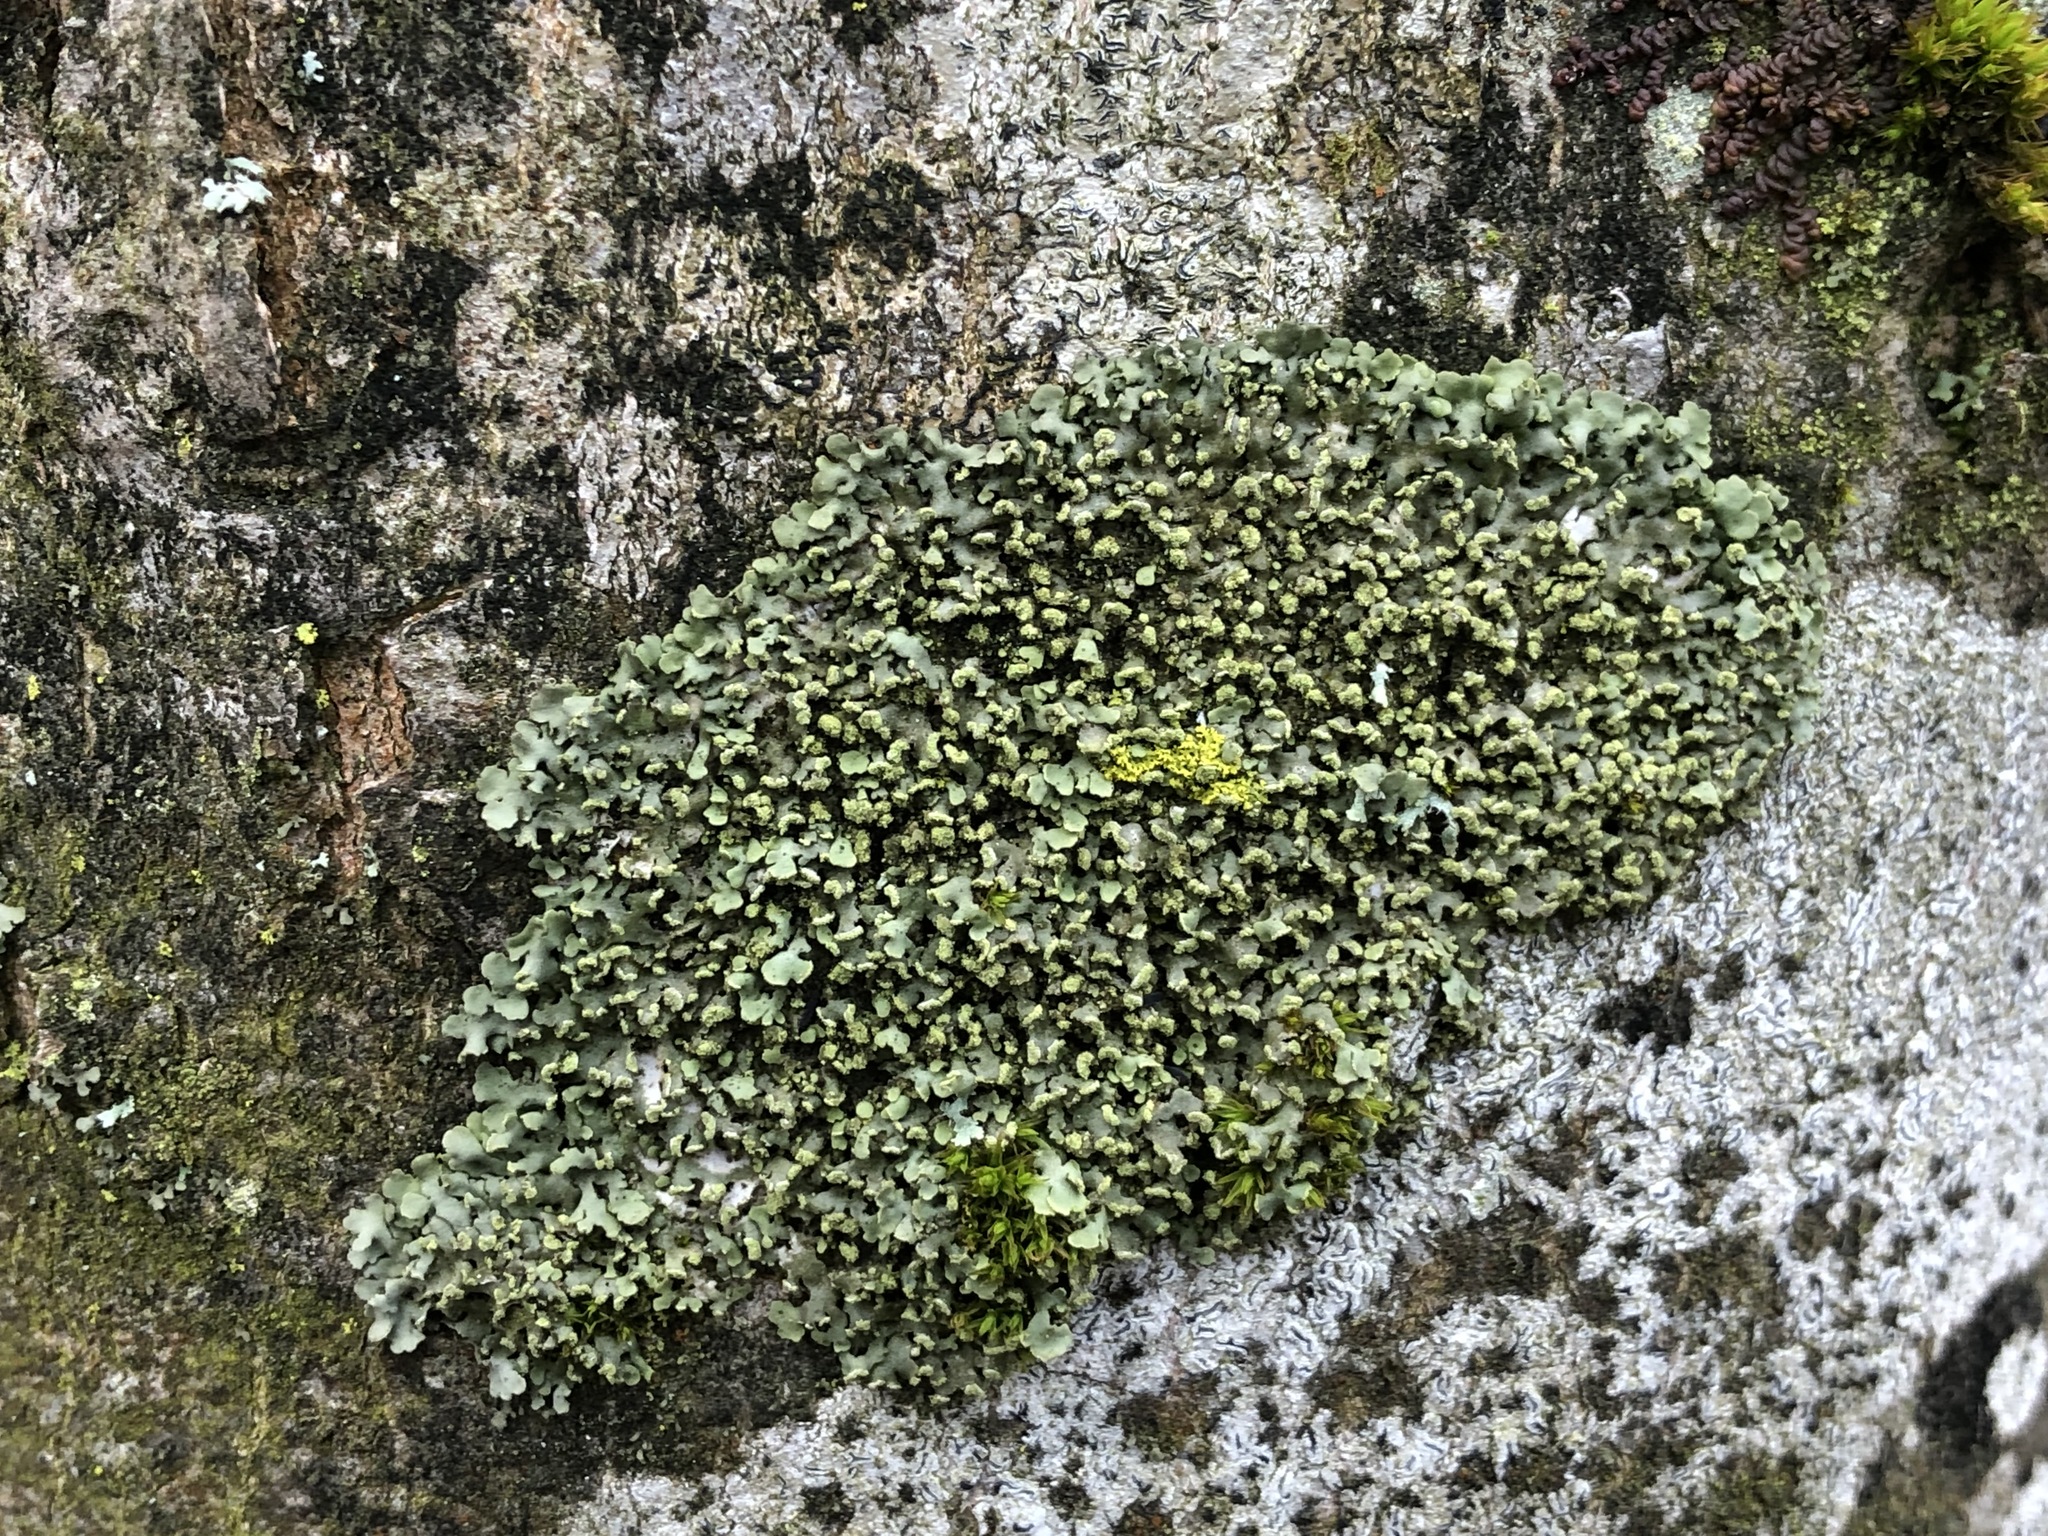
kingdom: Fungi
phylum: Ascomycota
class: Lecanoromycetes
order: Caliciales
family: Physciaceae
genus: Phaeophyscia
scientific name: Phaeophyscia endophoenicea
